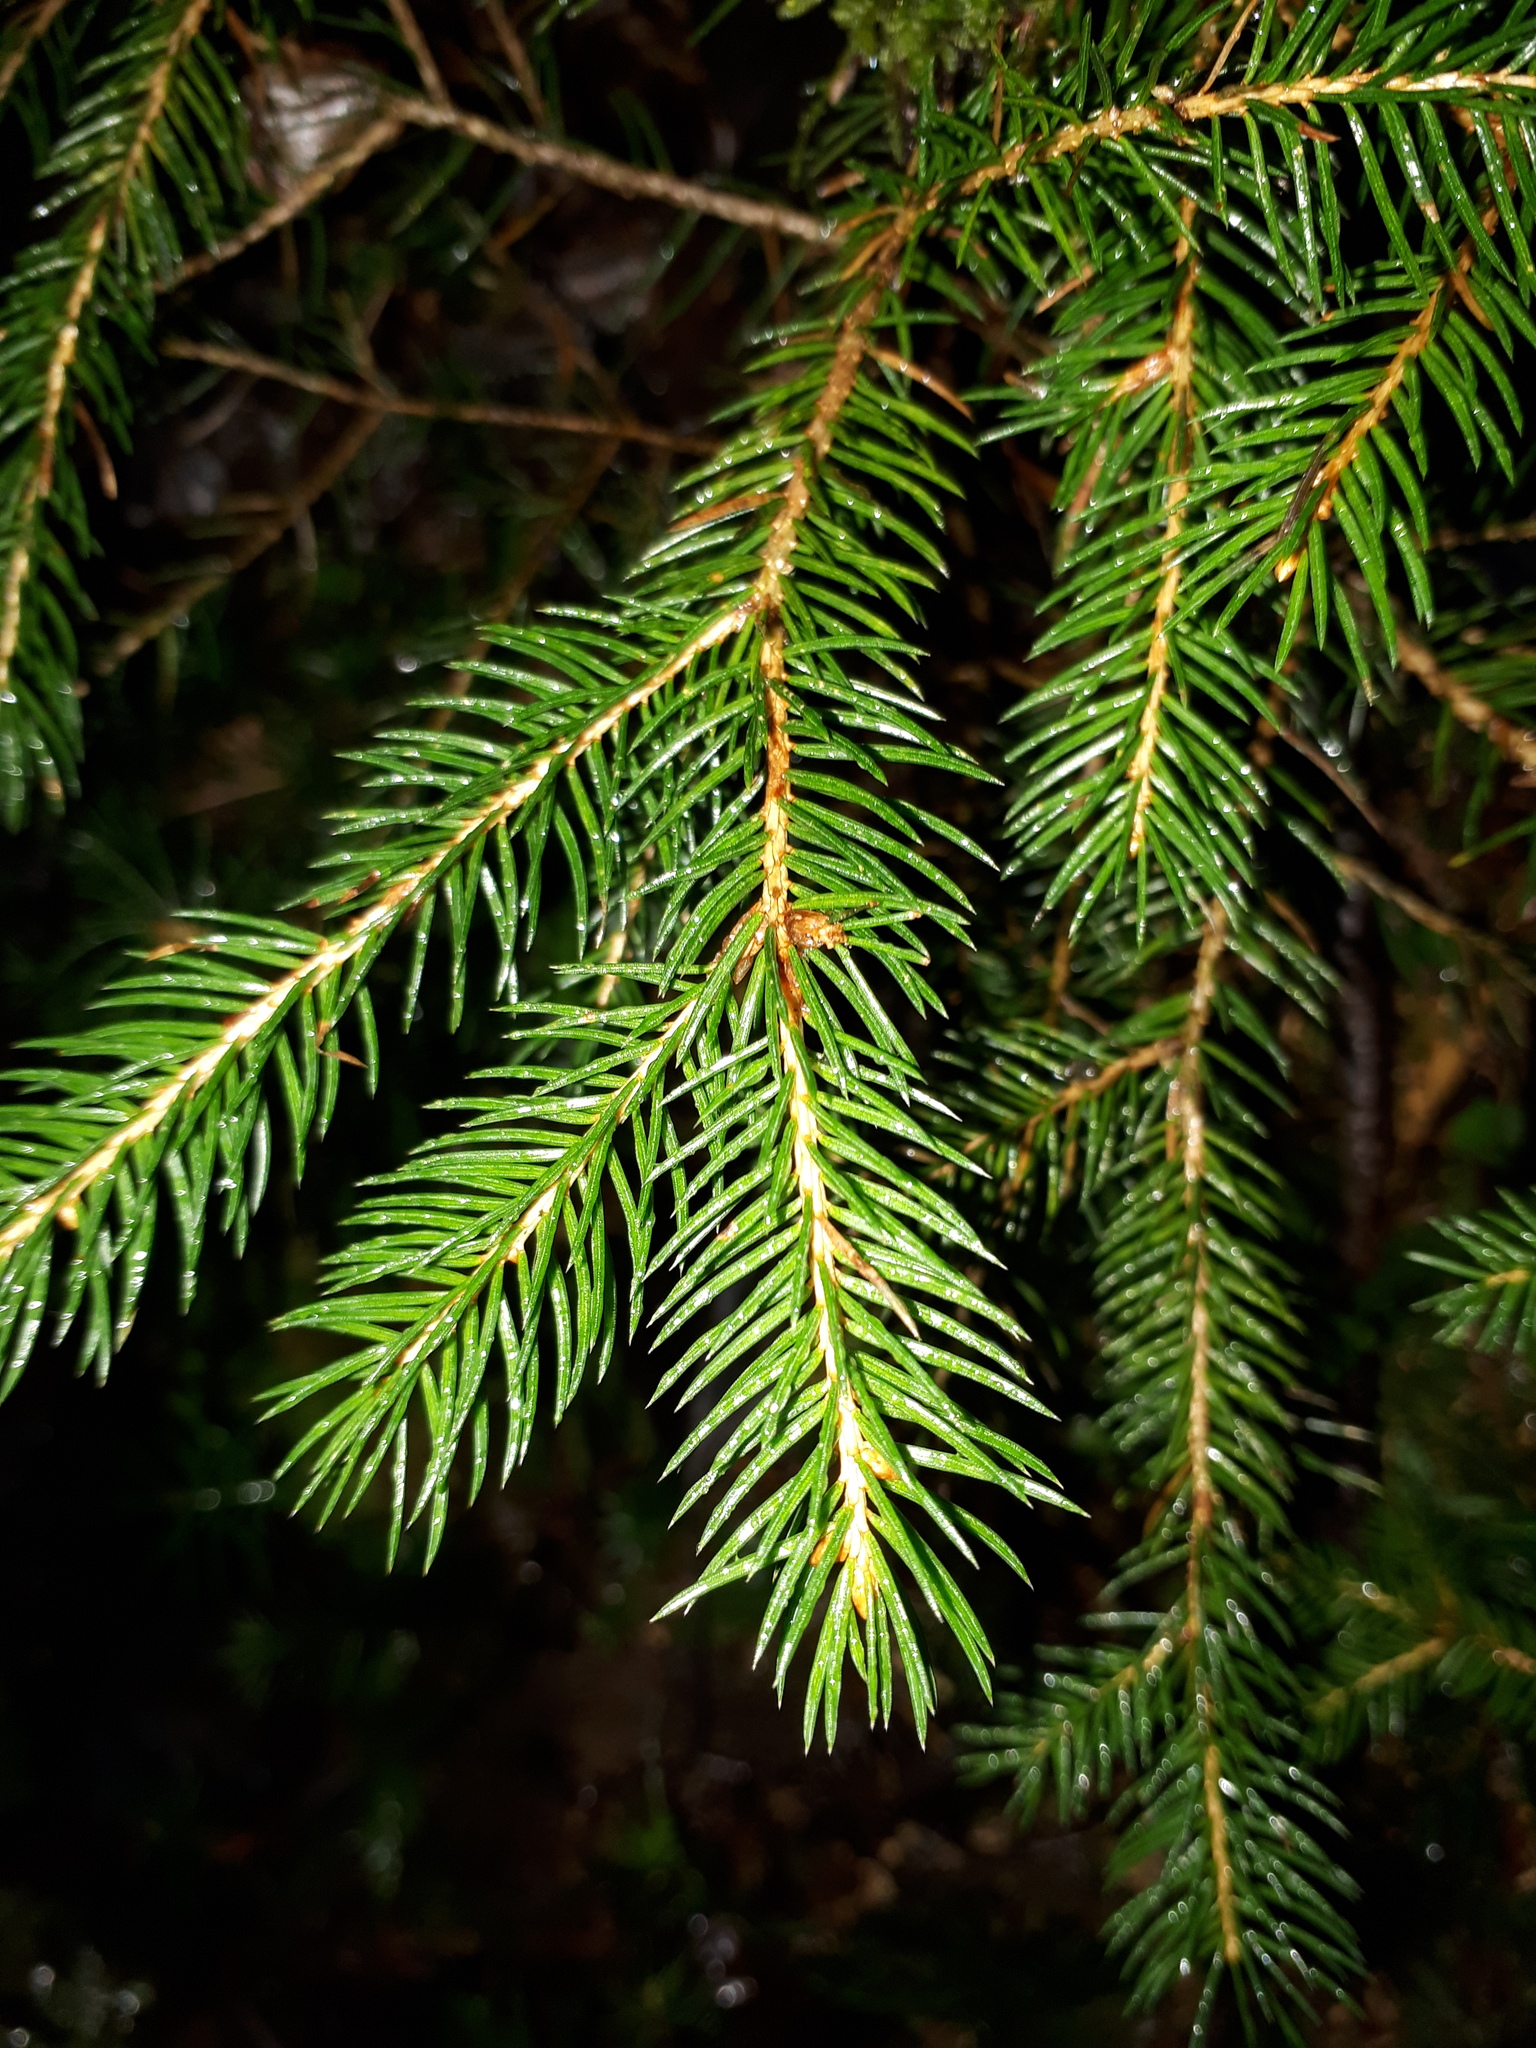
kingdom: Plantae
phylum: Tracheophyta
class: Pinopsida
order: Pinales
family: Pinaceae
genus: Picea
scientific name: Picea abies
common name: Norway spruce
